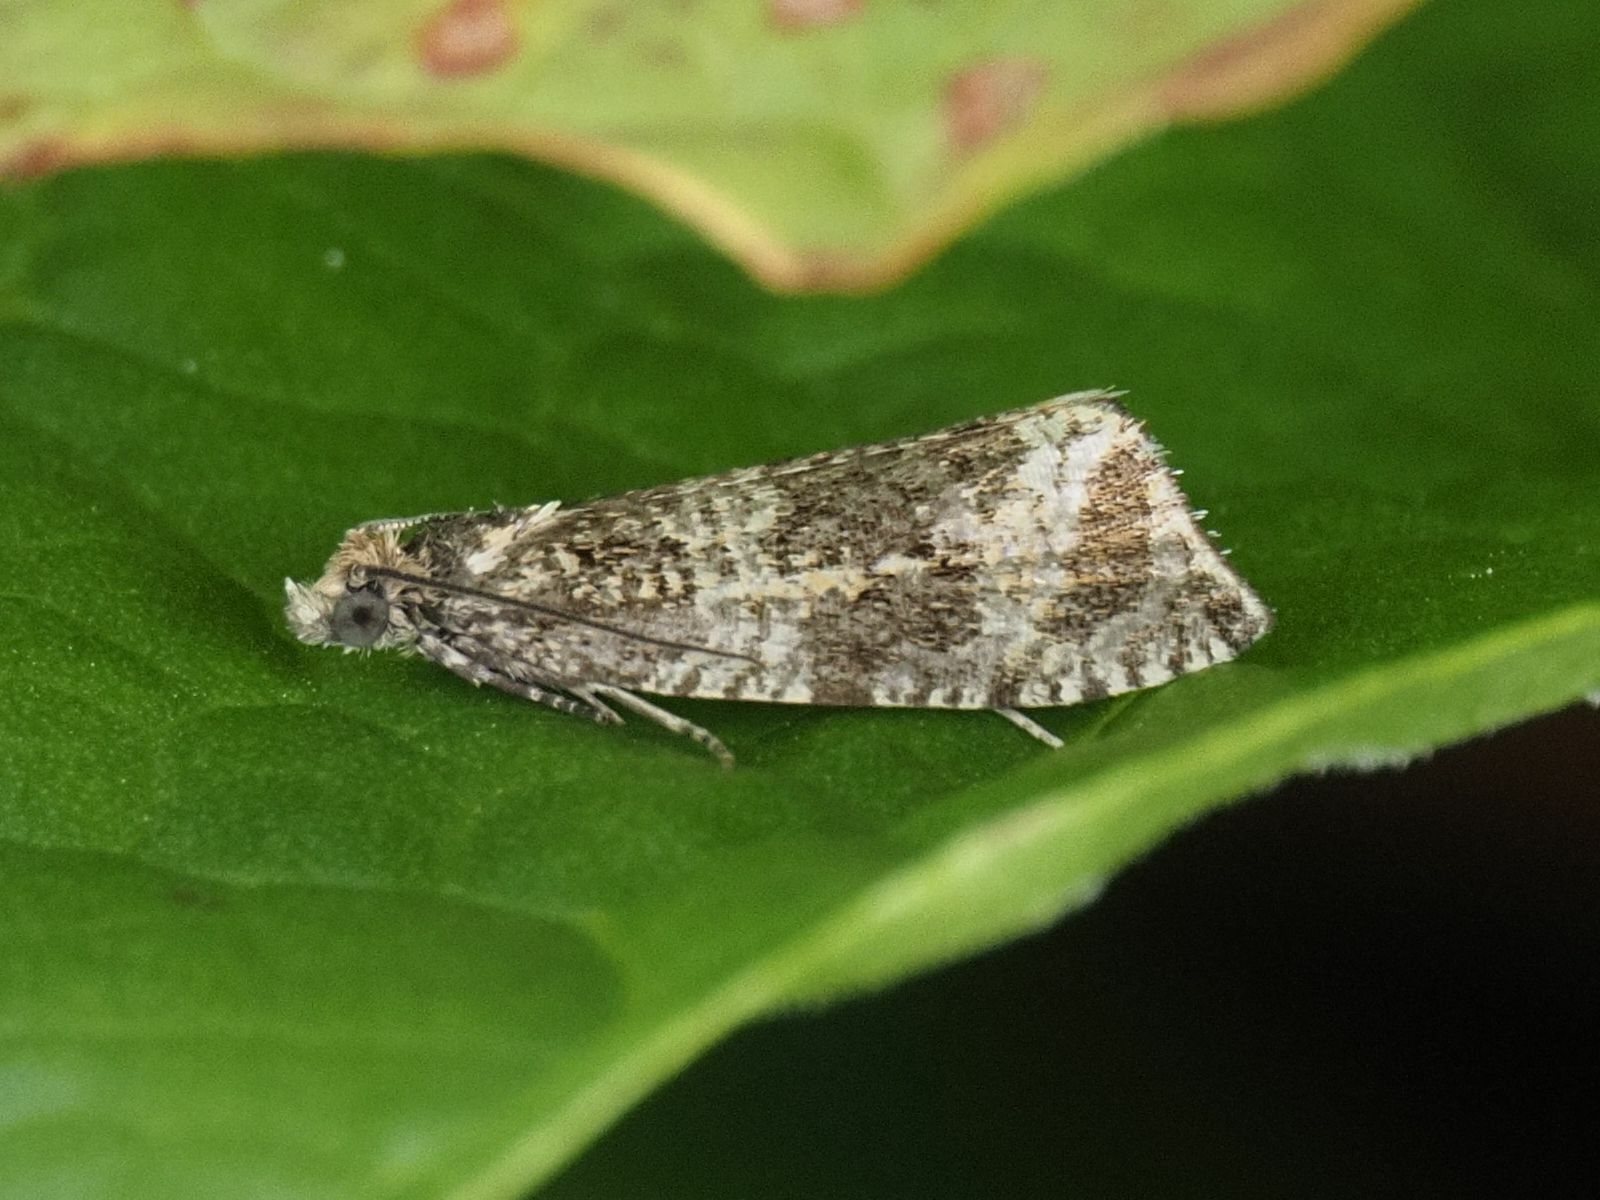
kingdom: Animalia
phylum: Arthropoda
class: Insecta
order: Lepidoptera
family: Tortricidae
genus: Syricoris
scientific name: Syricoris lacunana
